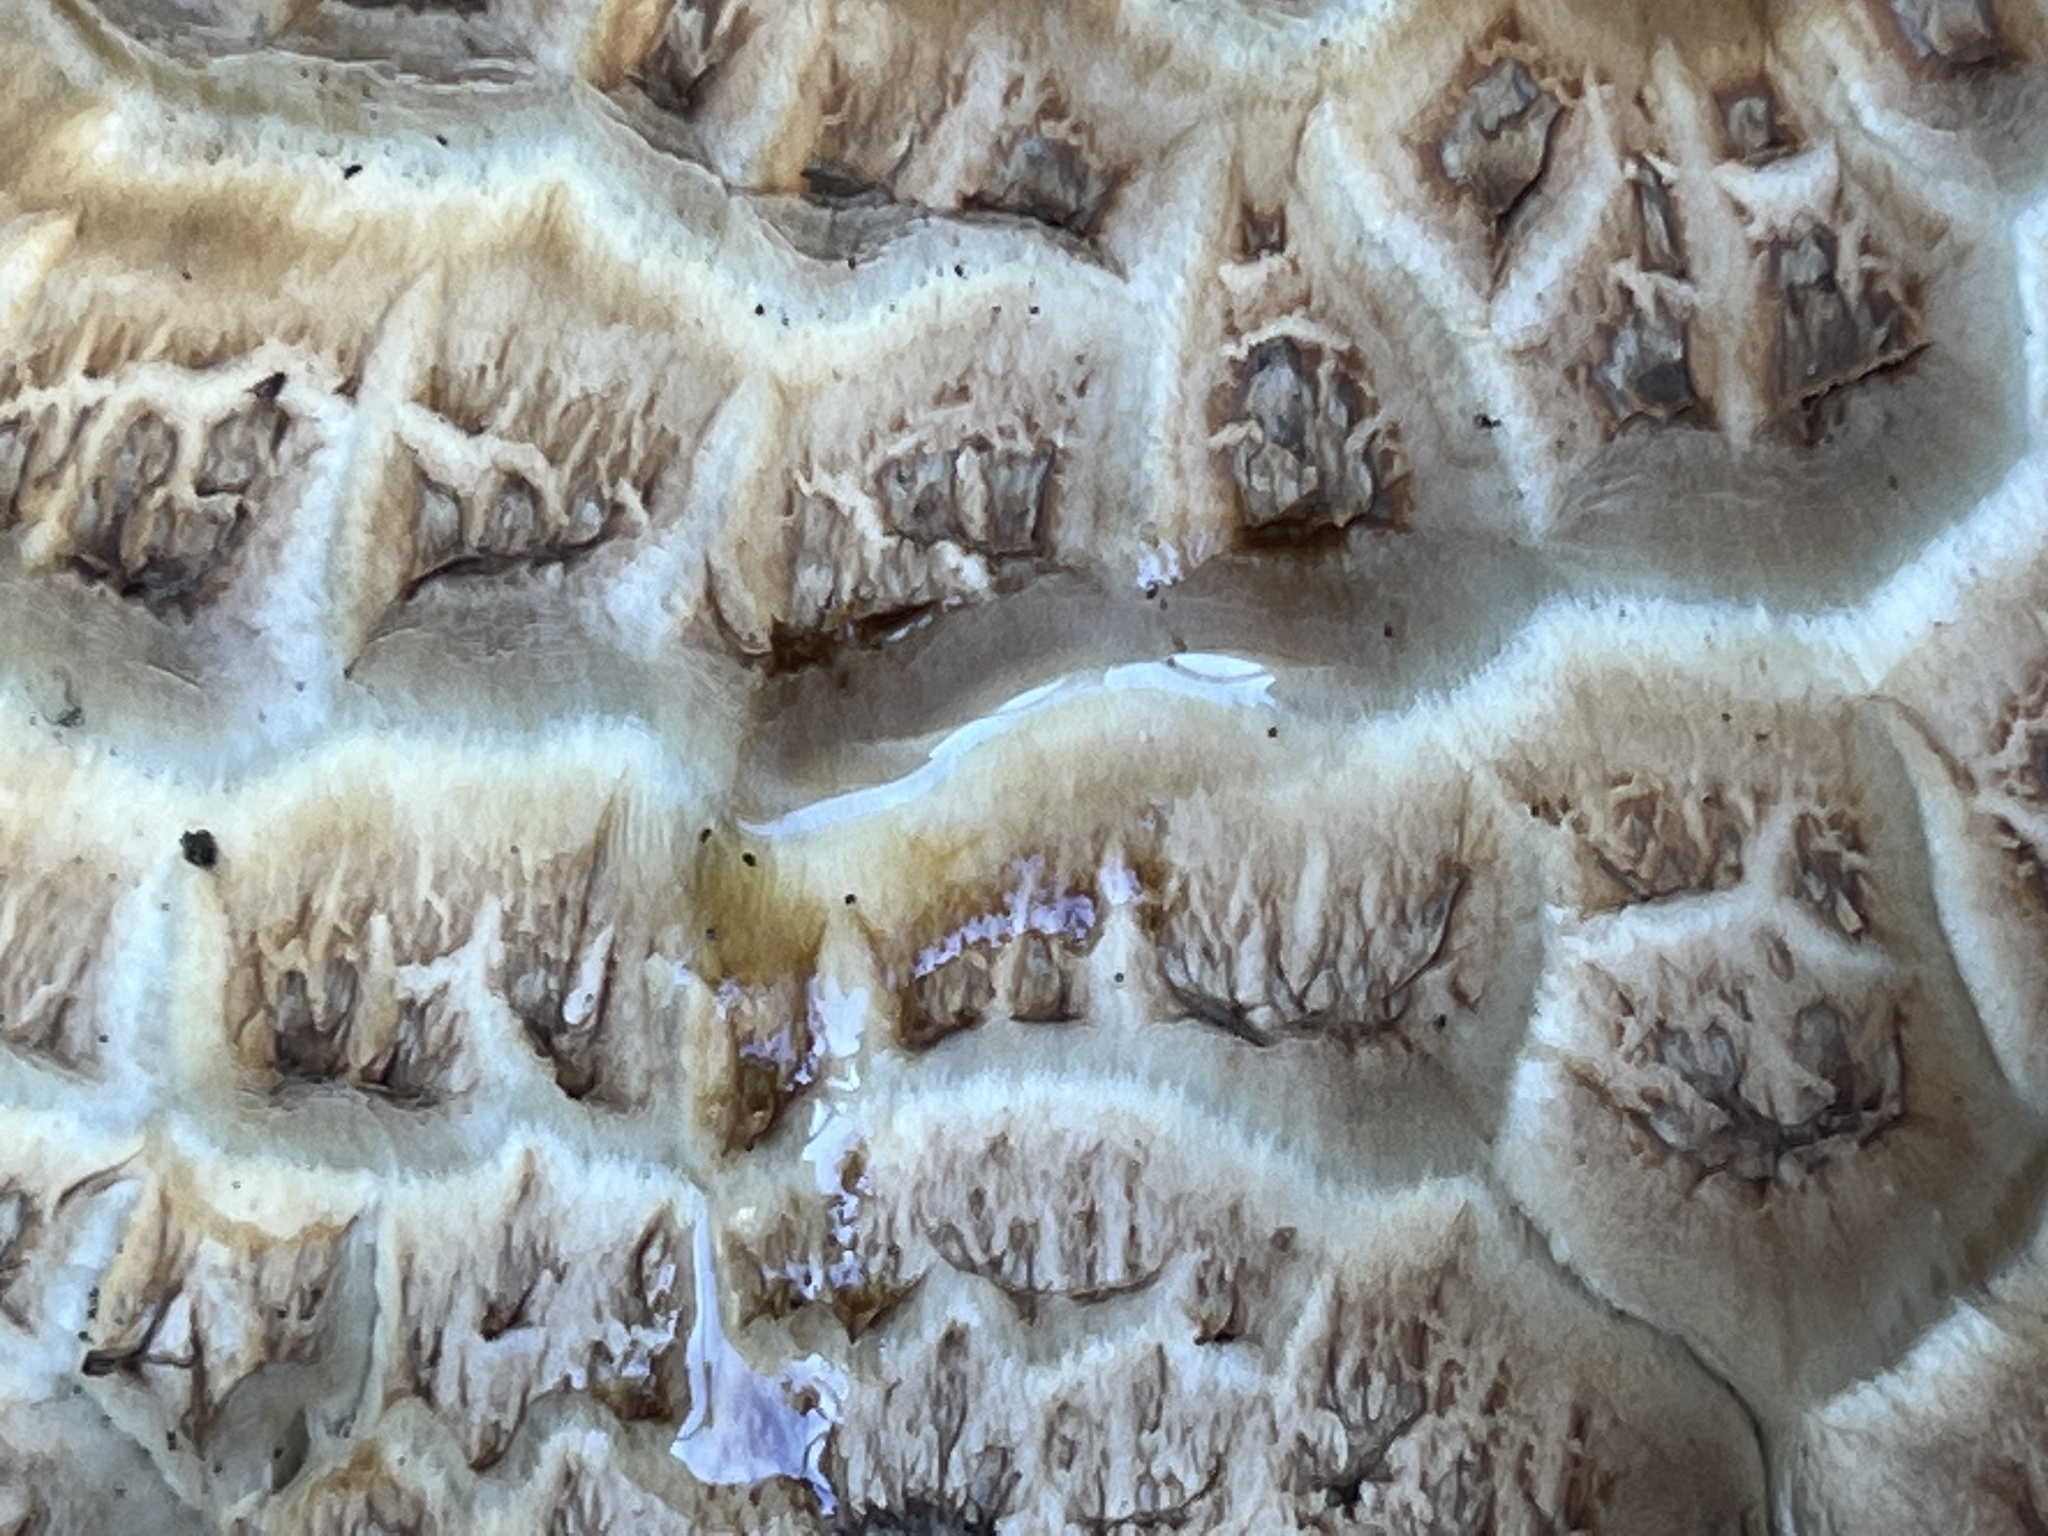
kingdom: Fungi
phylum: Basidiomycota
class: Agaricomycetes
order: Agaricales
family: Agaricaceae
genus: Agaricus
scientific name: Agaricus augustus
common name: Prince
